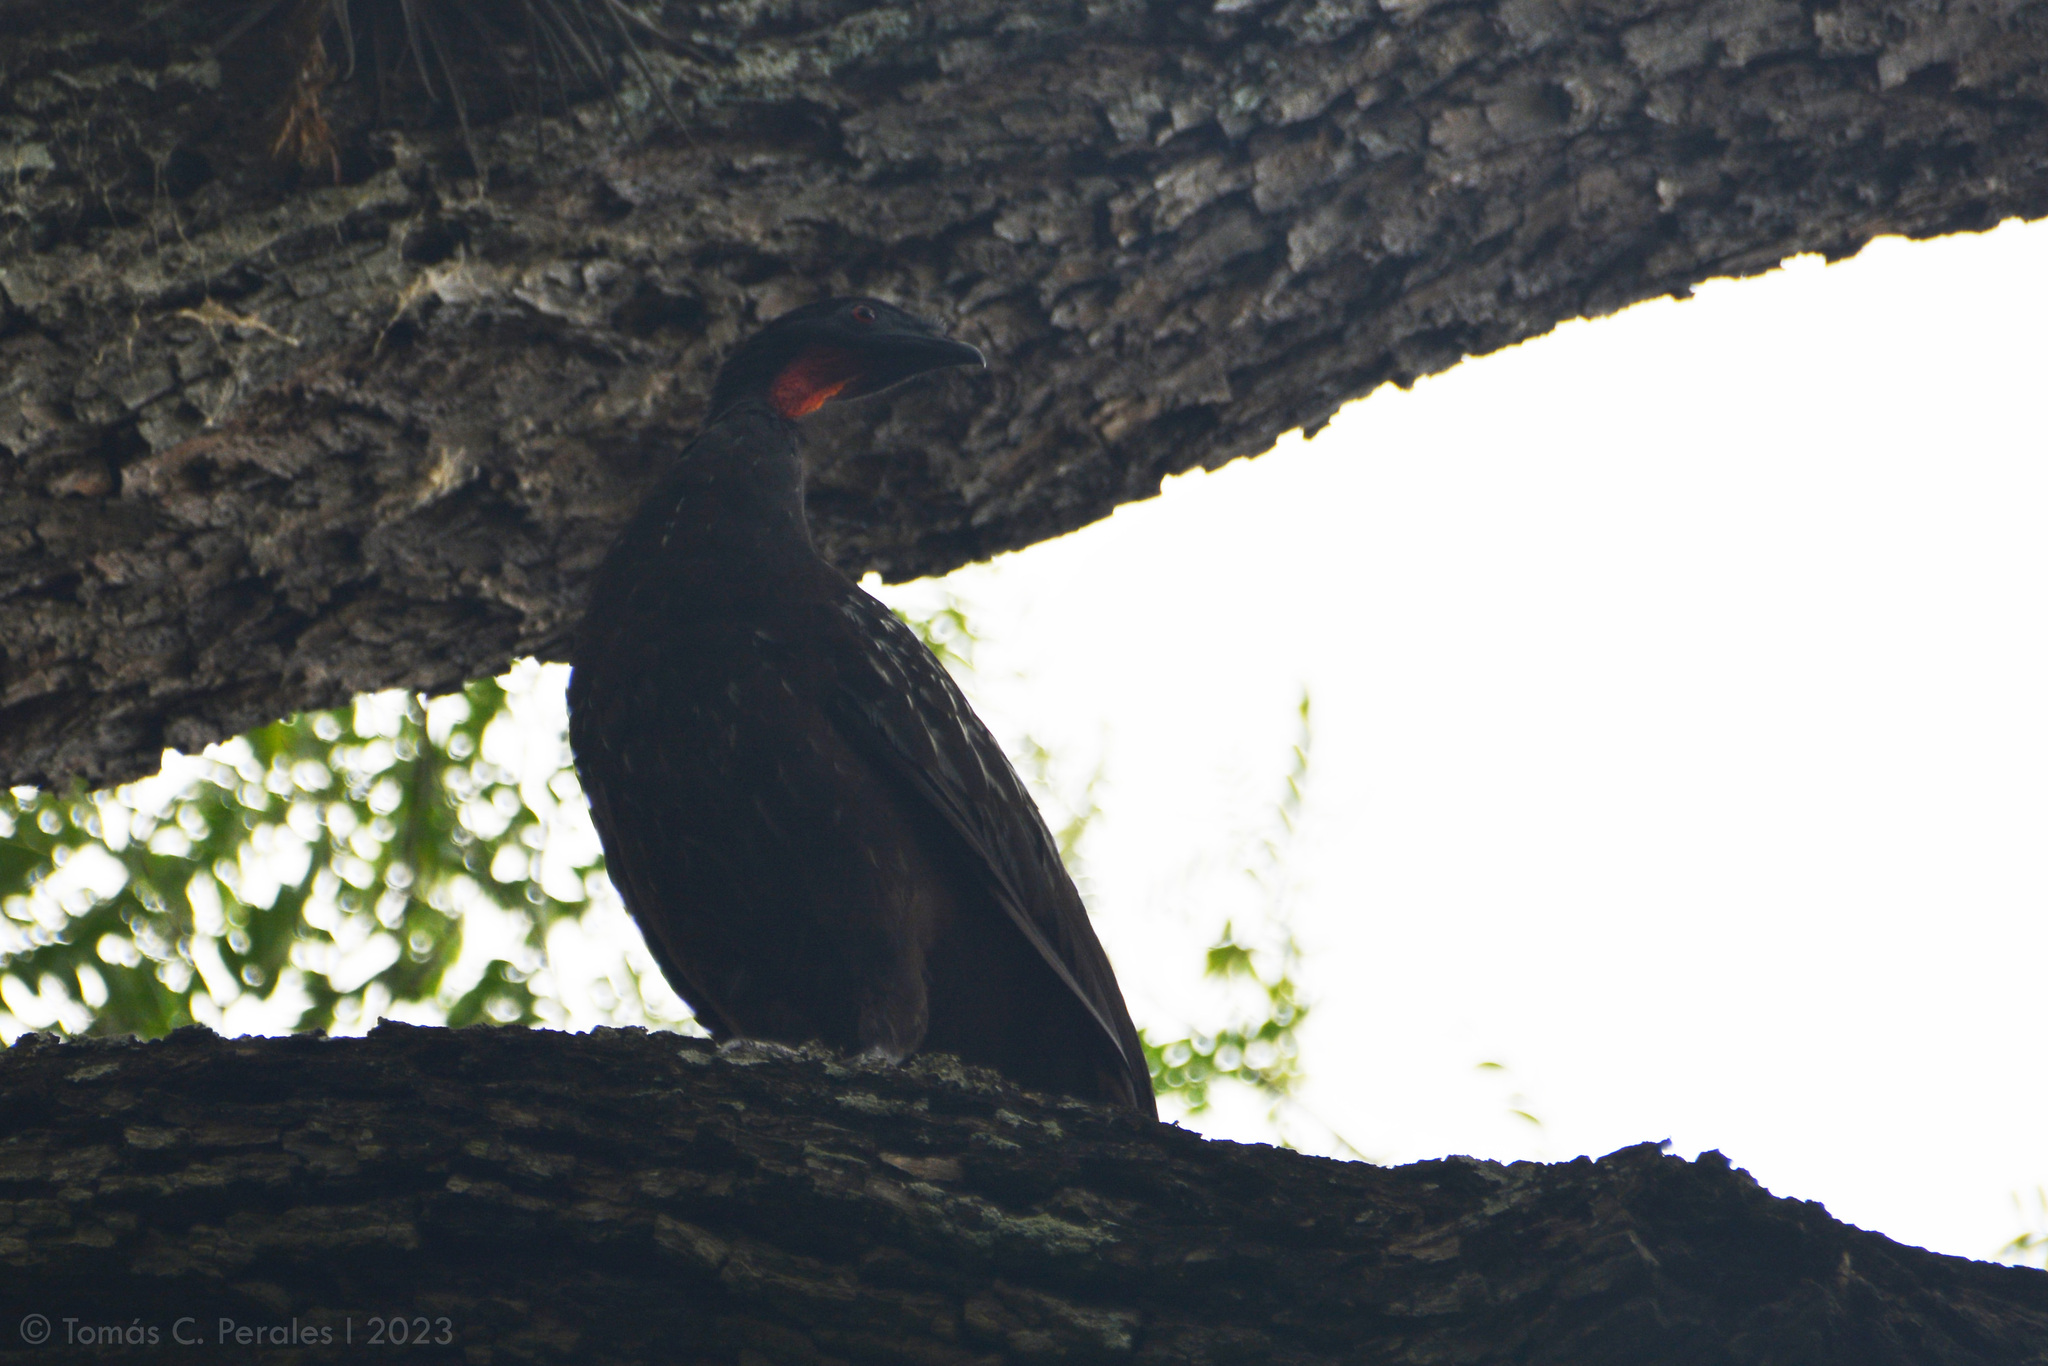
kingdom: Animalia
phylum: Chordata
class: Aves
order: Galliformes
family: Cracidae
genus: Penelope
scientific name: Penelope bridgesi
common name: Yungas guan
